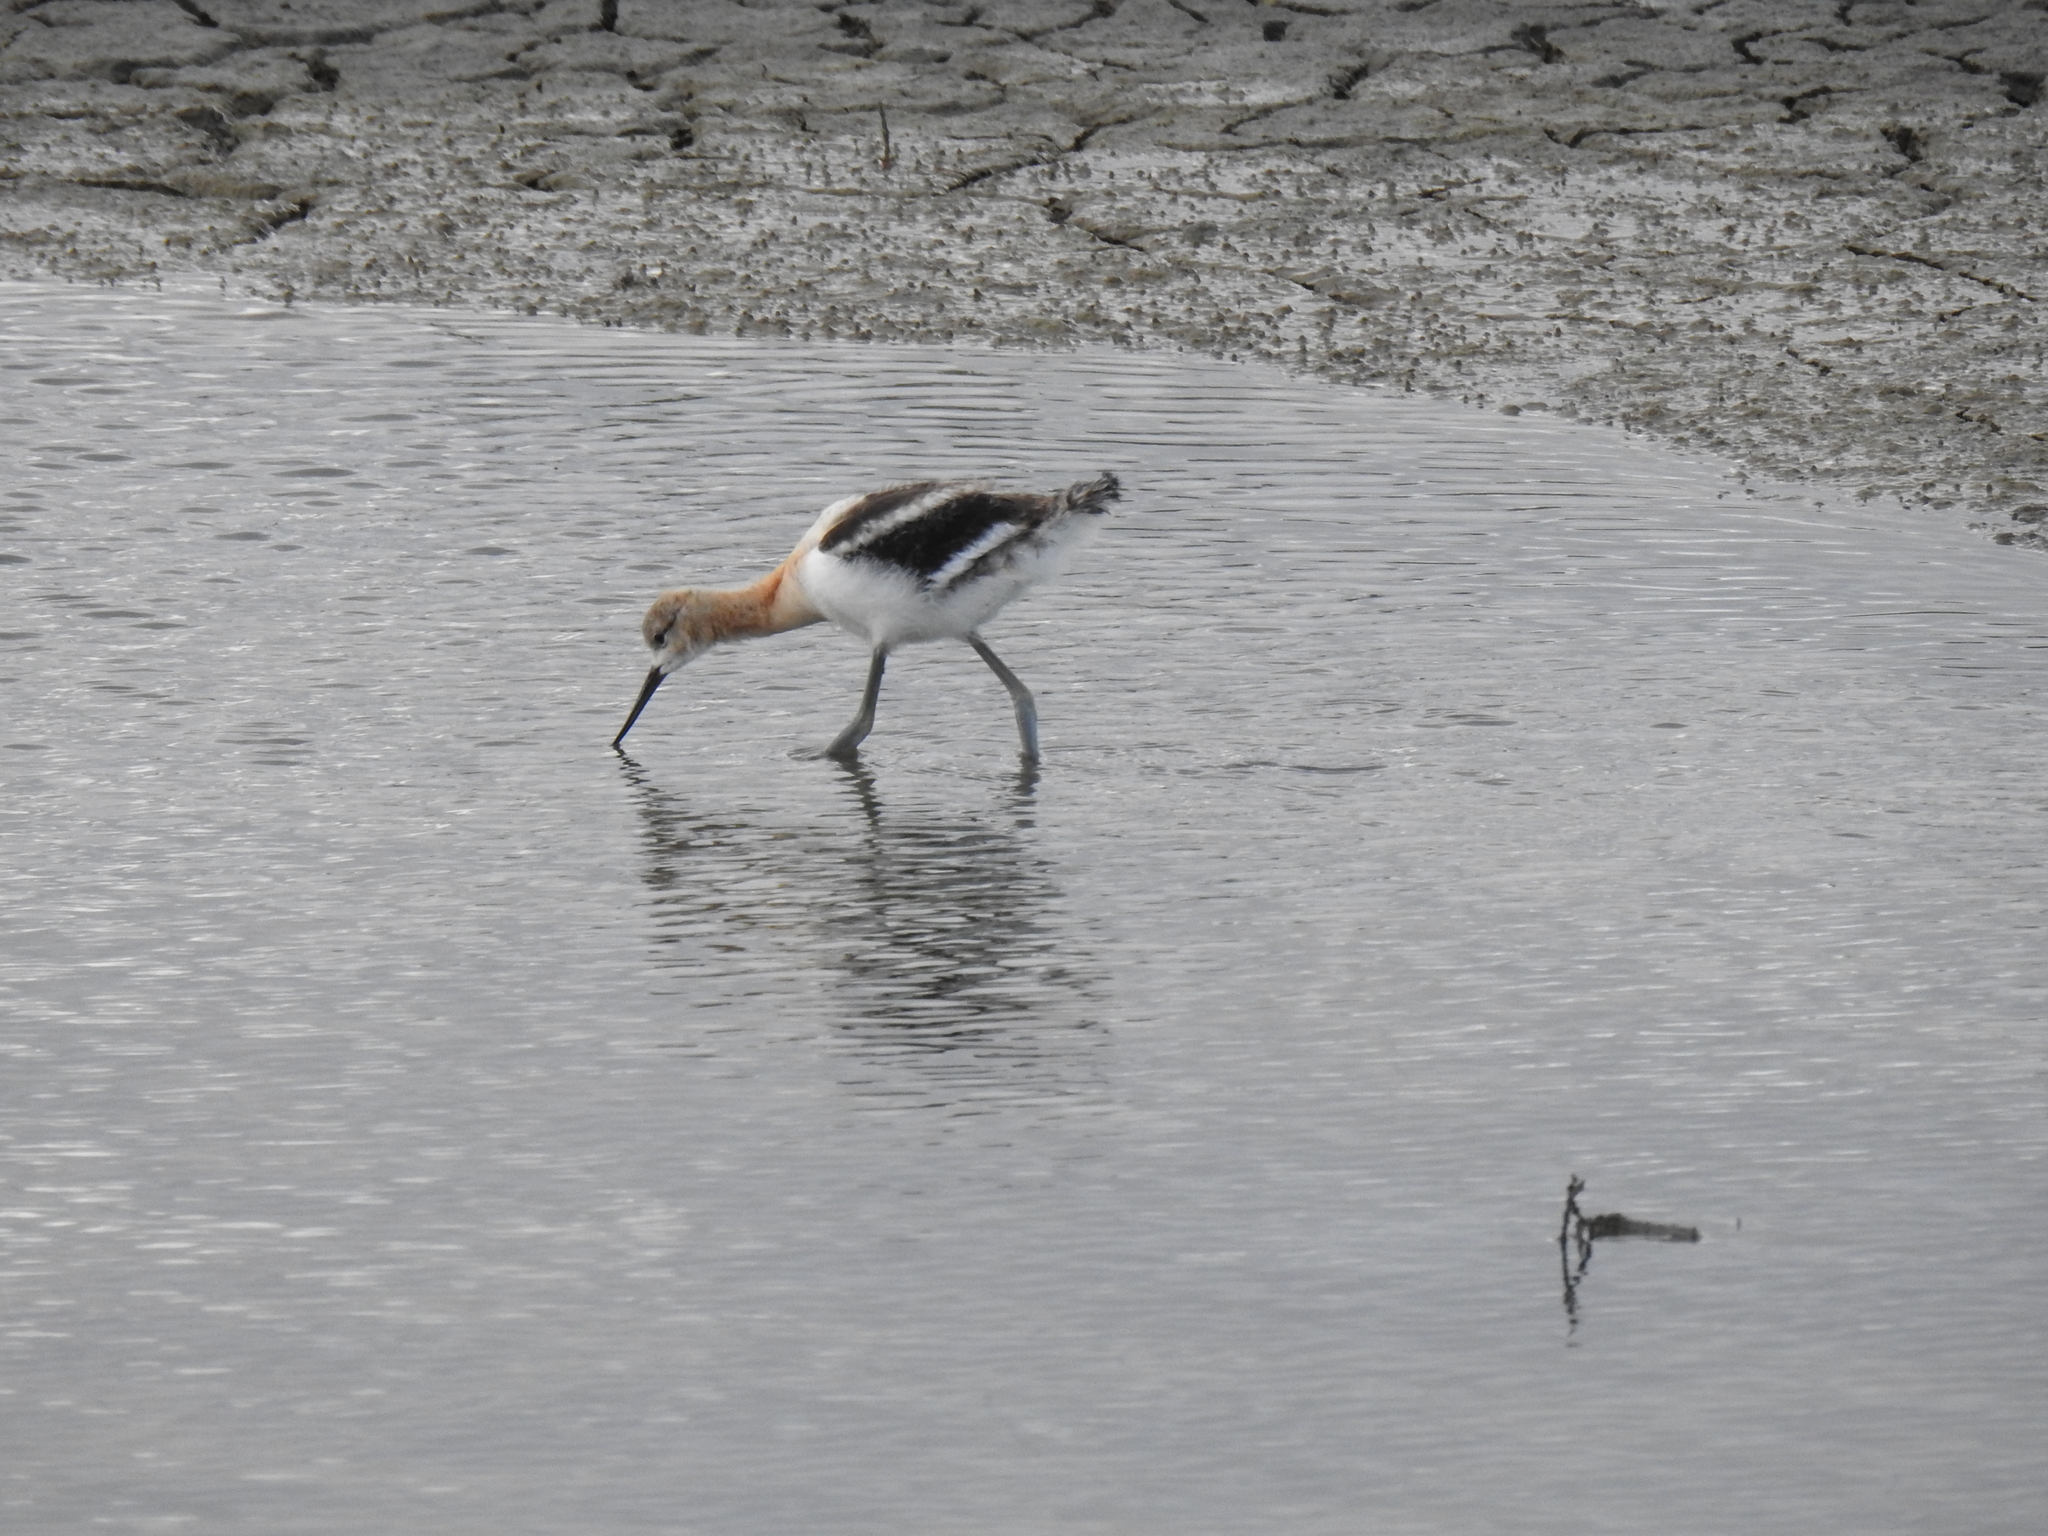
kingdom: Animalia
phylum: Chordata
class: Aves
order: Charadriiformes
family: Recurvirostridae
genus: Recurvirostra
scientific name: Recurvirostra americana
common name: American avocet
